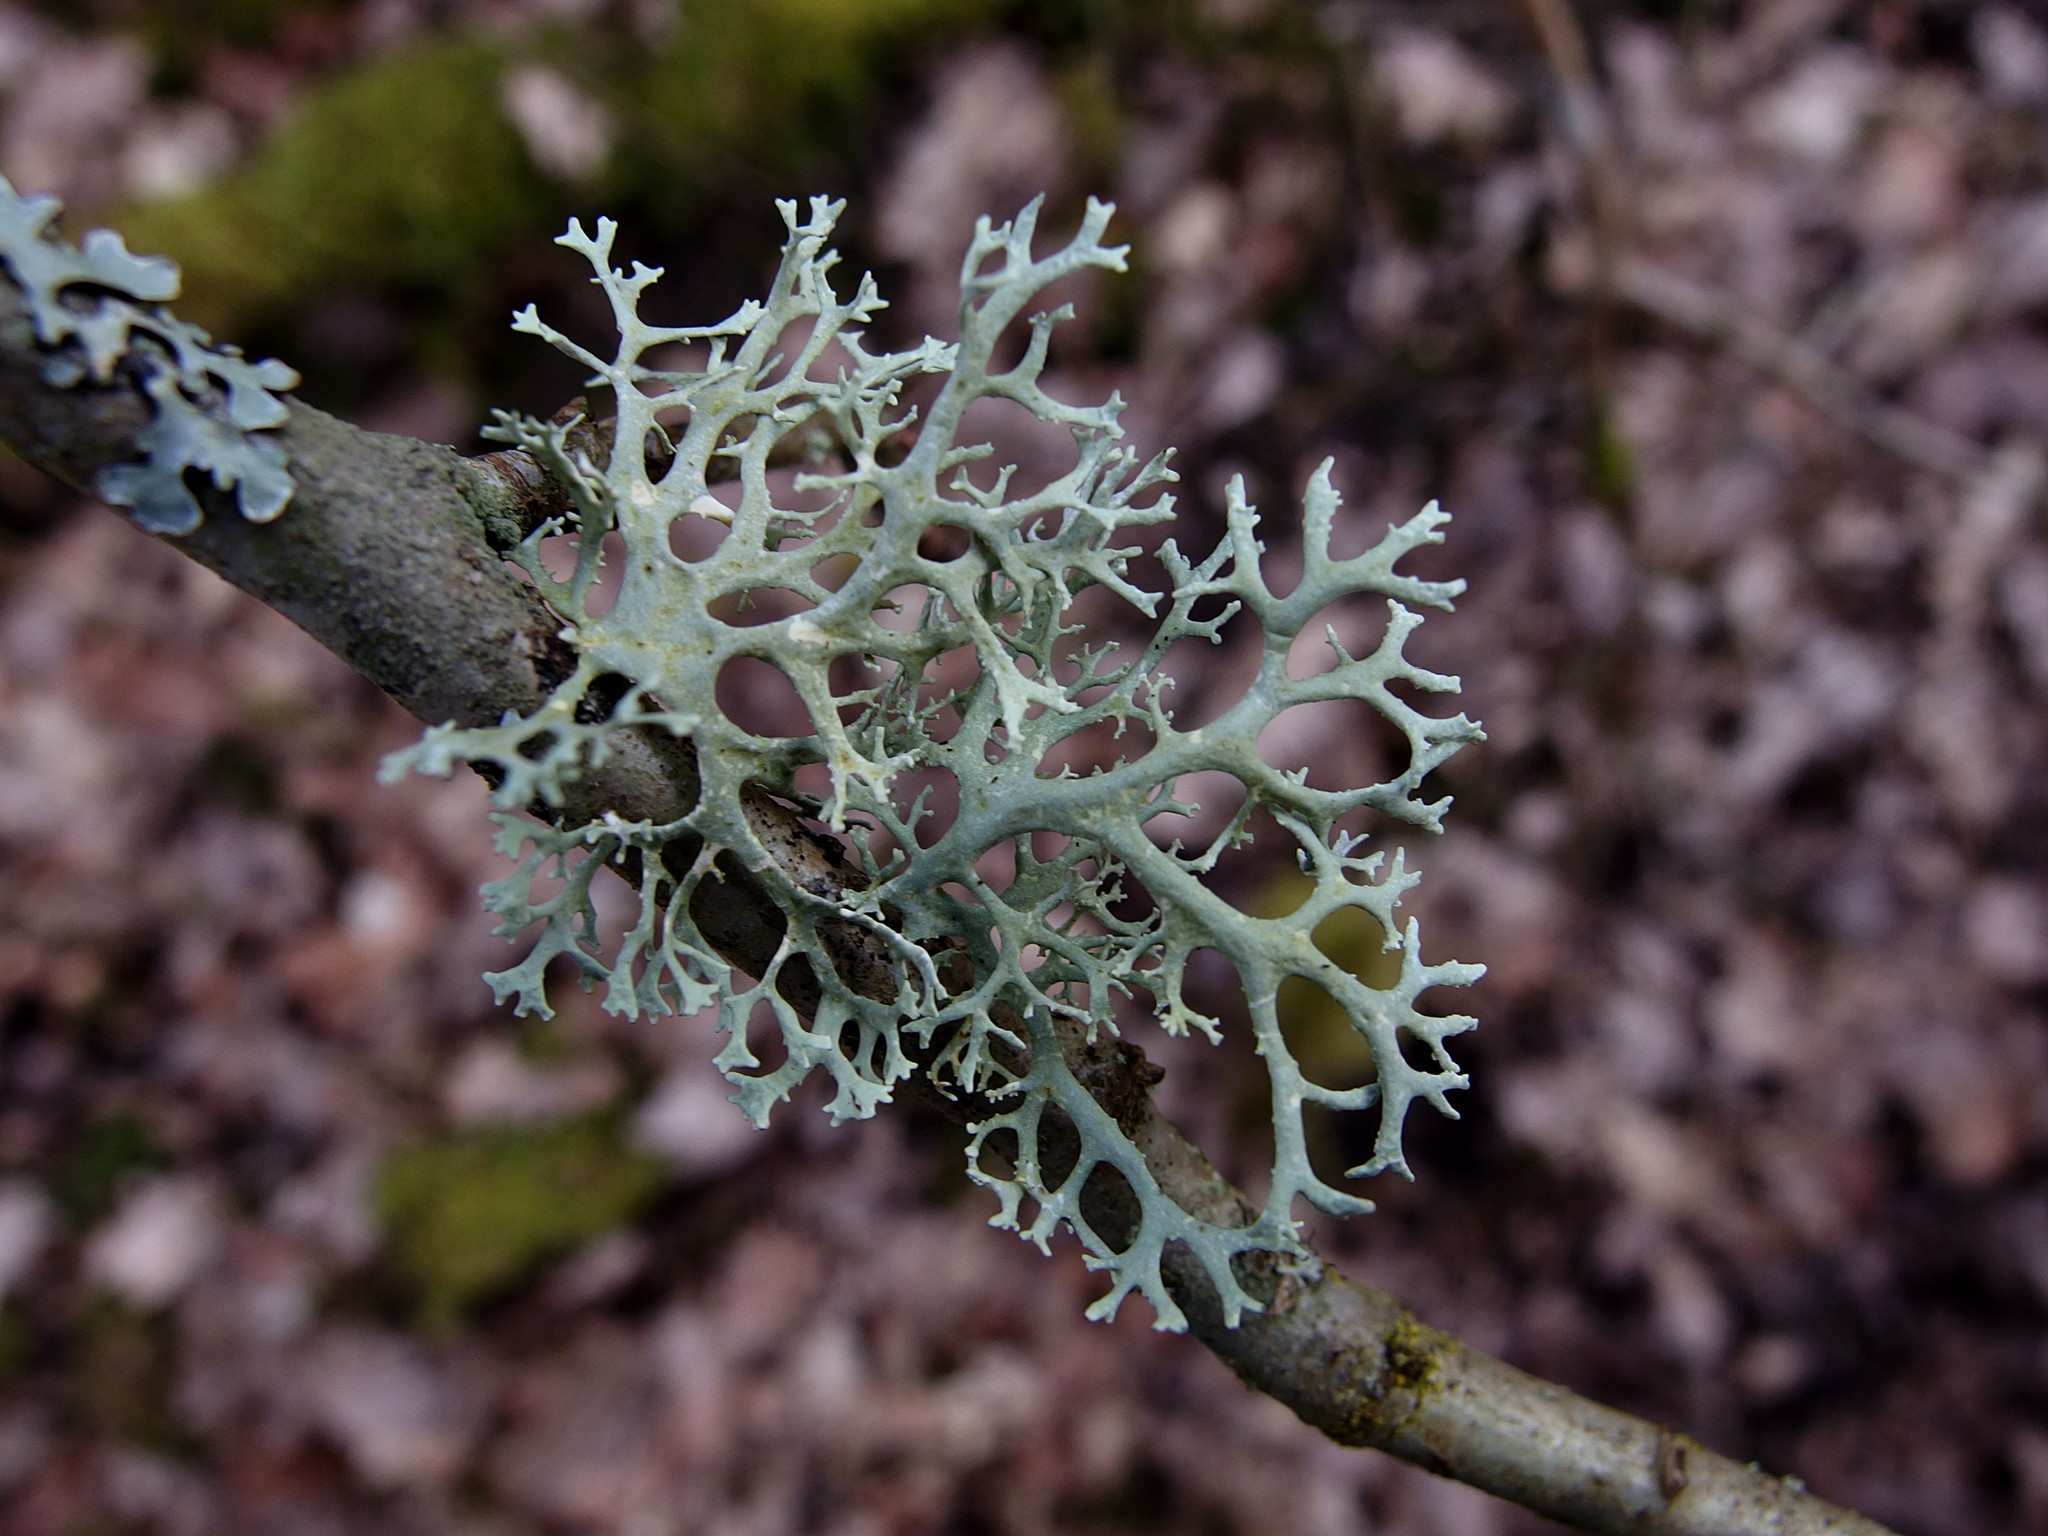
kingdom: Fungi
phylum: Ascomycota
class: Lecanoromycetes
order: Lecanorales
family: Parmeliaceae
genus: Pseudevernia
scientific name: Pseudevernia furfuracea
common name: Tree moss
